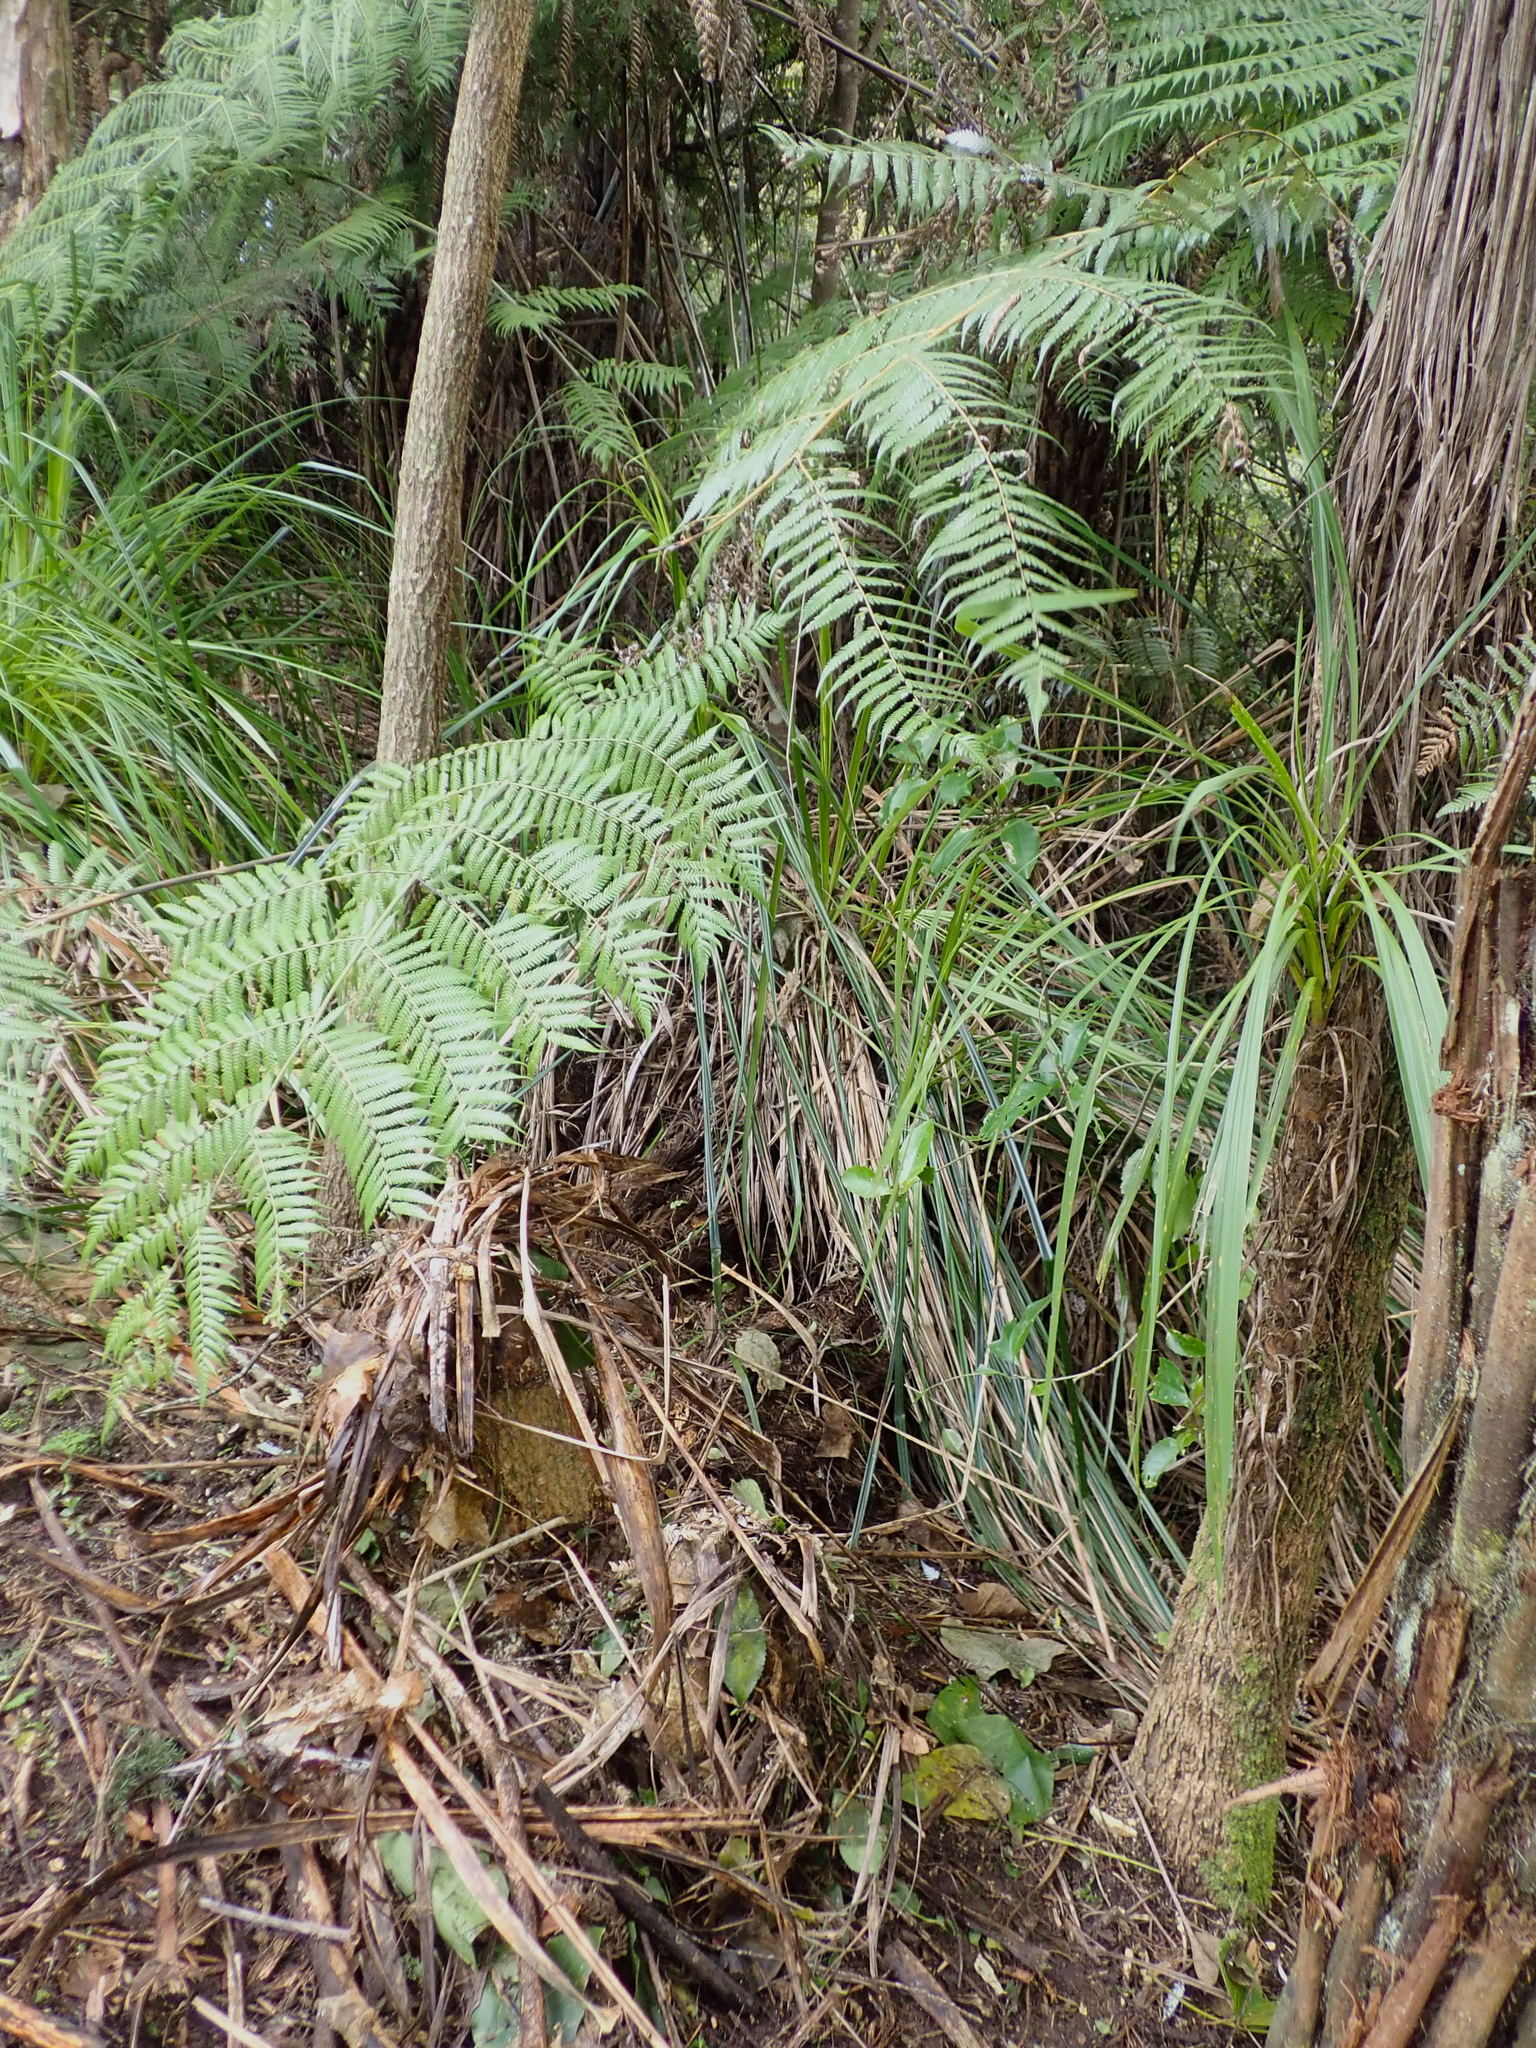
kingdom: Plantae
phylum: Tracheophyta
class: Liliopsida
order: Asparagales
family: Asparagaceae
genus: Cordyline
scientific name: Cordyline australis
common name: Cabbage-palm
